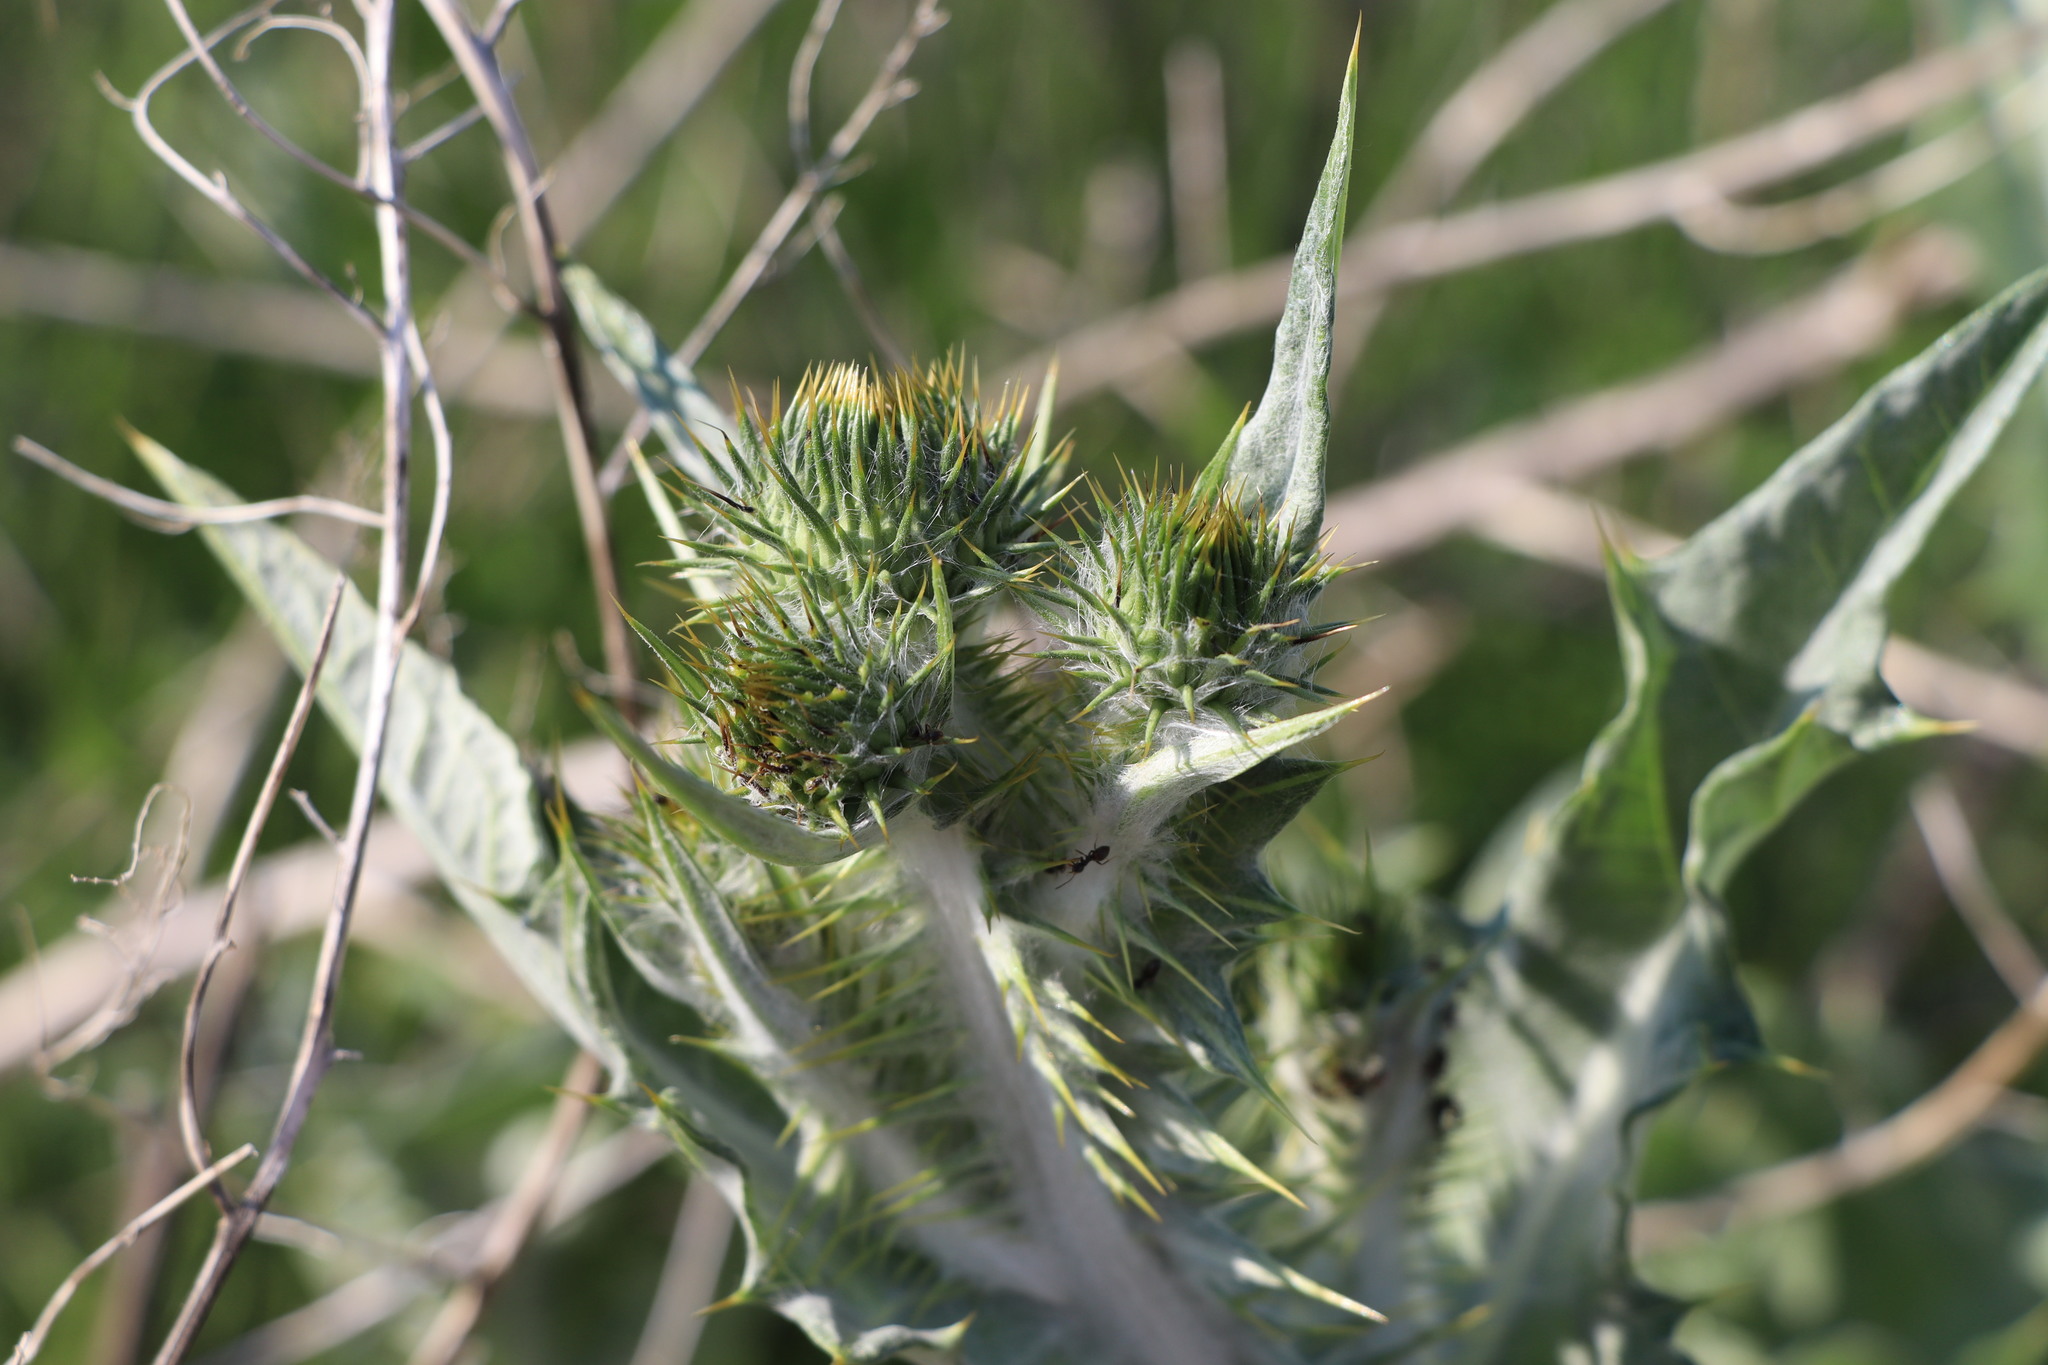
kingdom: Plantae
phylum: Tracheophyta
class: Magnoliopsida
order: Asterales
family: Asteraceae
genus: Onopordum
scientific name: Onopordum acanthium
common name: Scotch thistle
